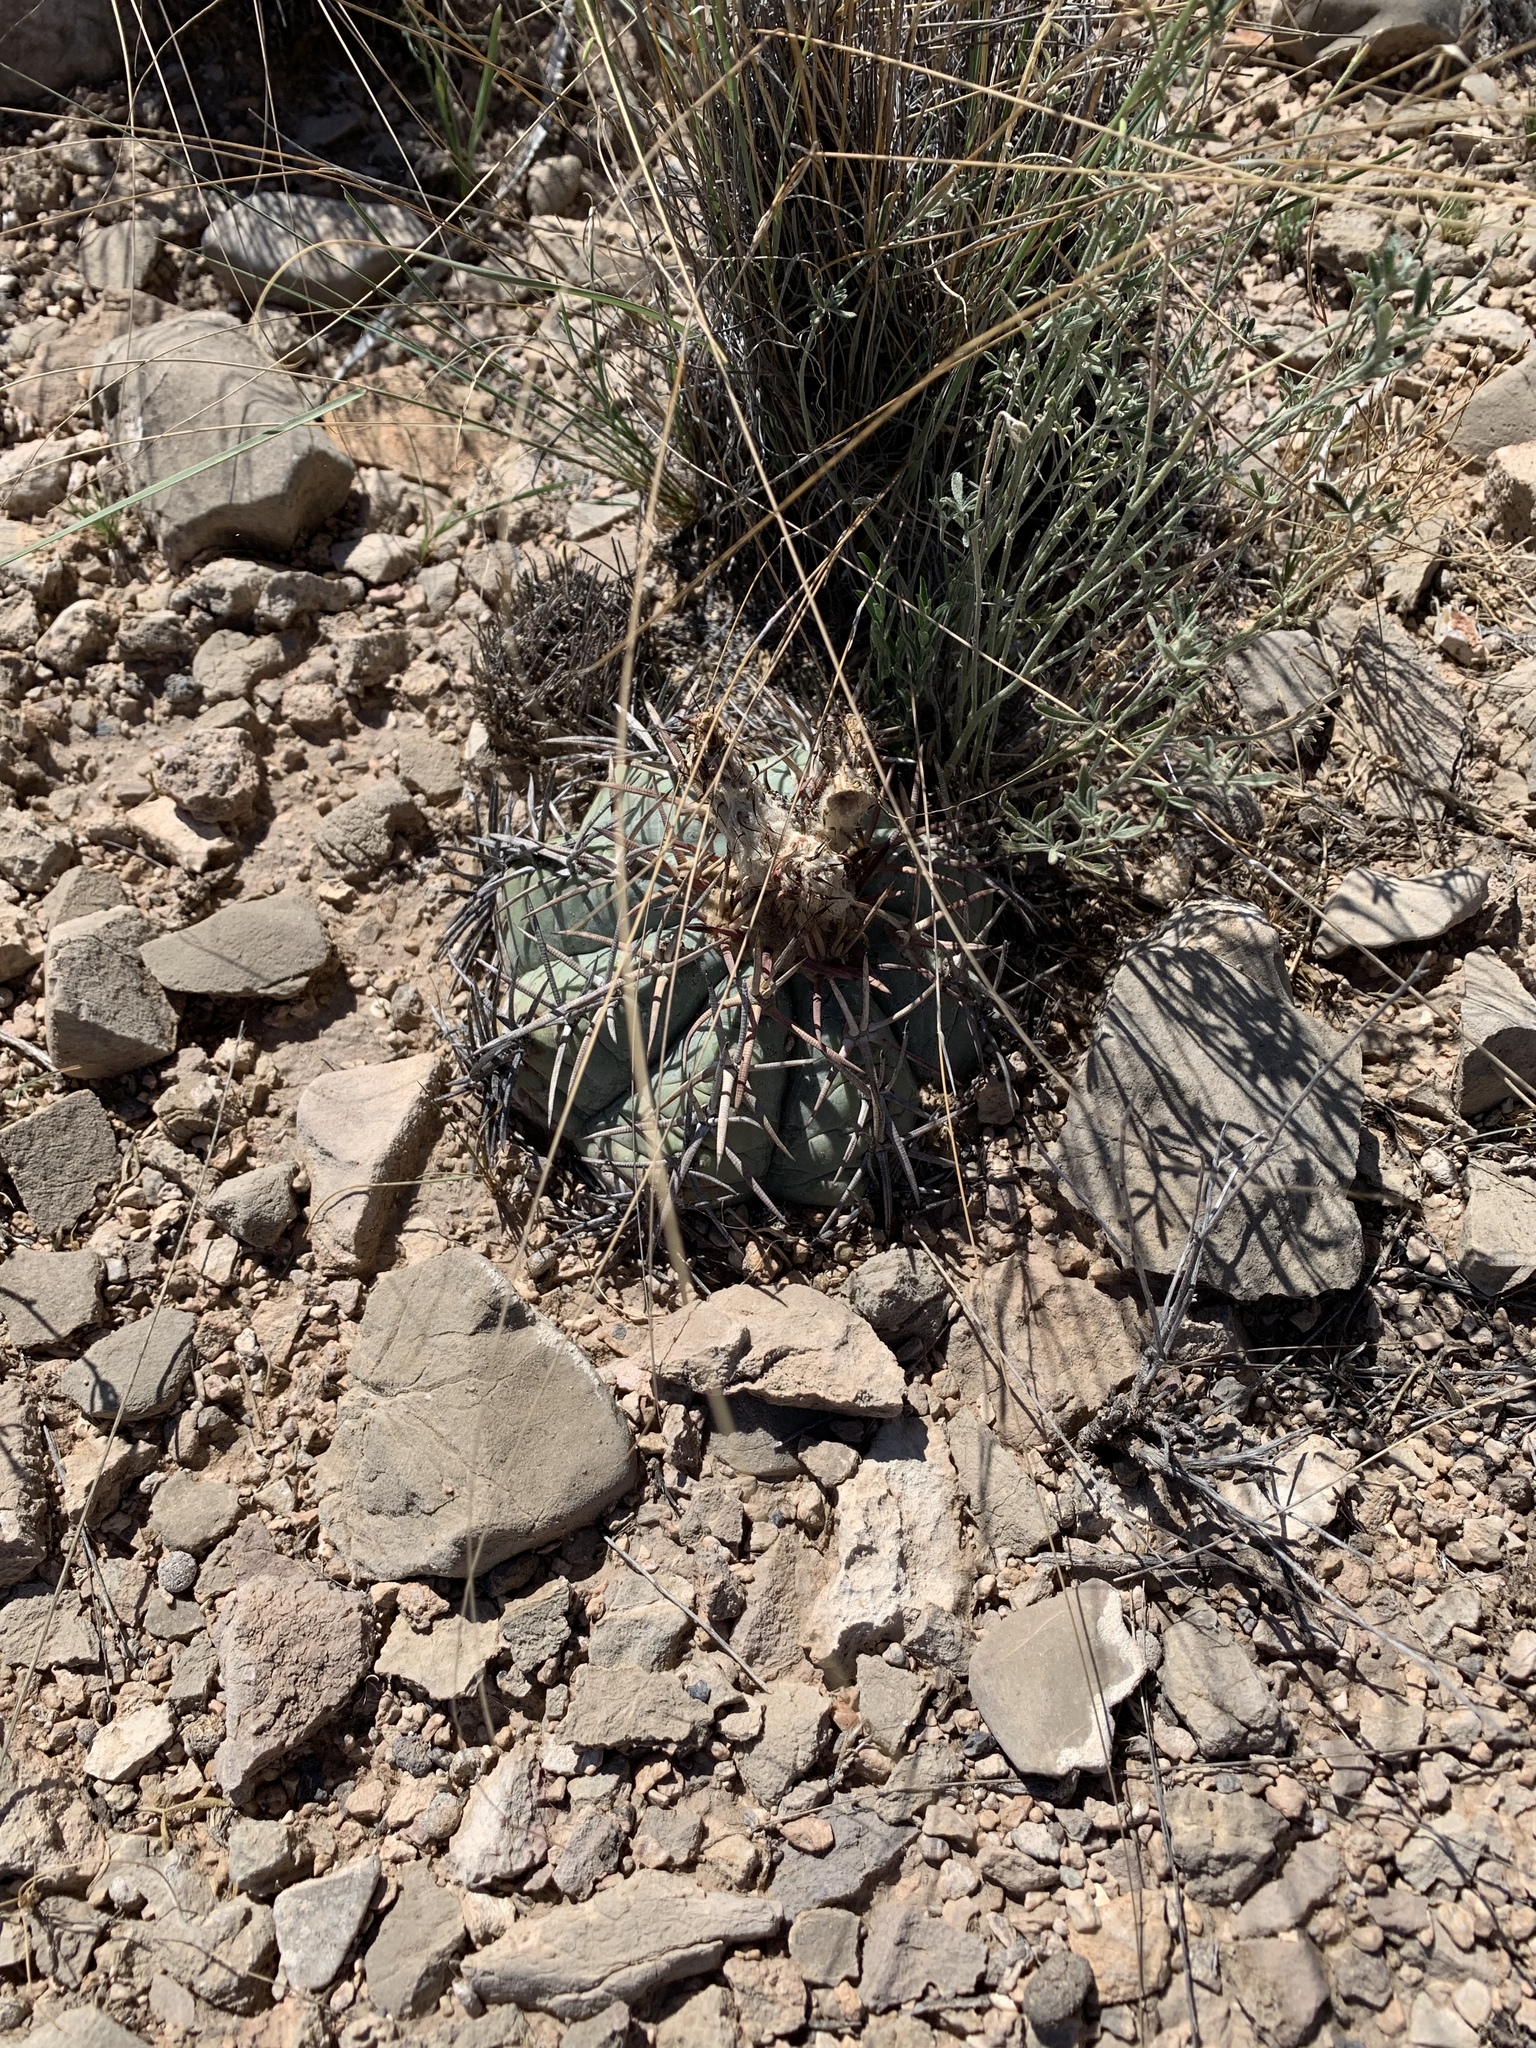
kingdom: Plantae
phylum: Tracheophyta
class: Magnoliopsida
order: Caryophyllales
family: Cactaceae
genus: Echinocactus
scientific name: Echinocactus horizonthalonius
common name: Devilshead
